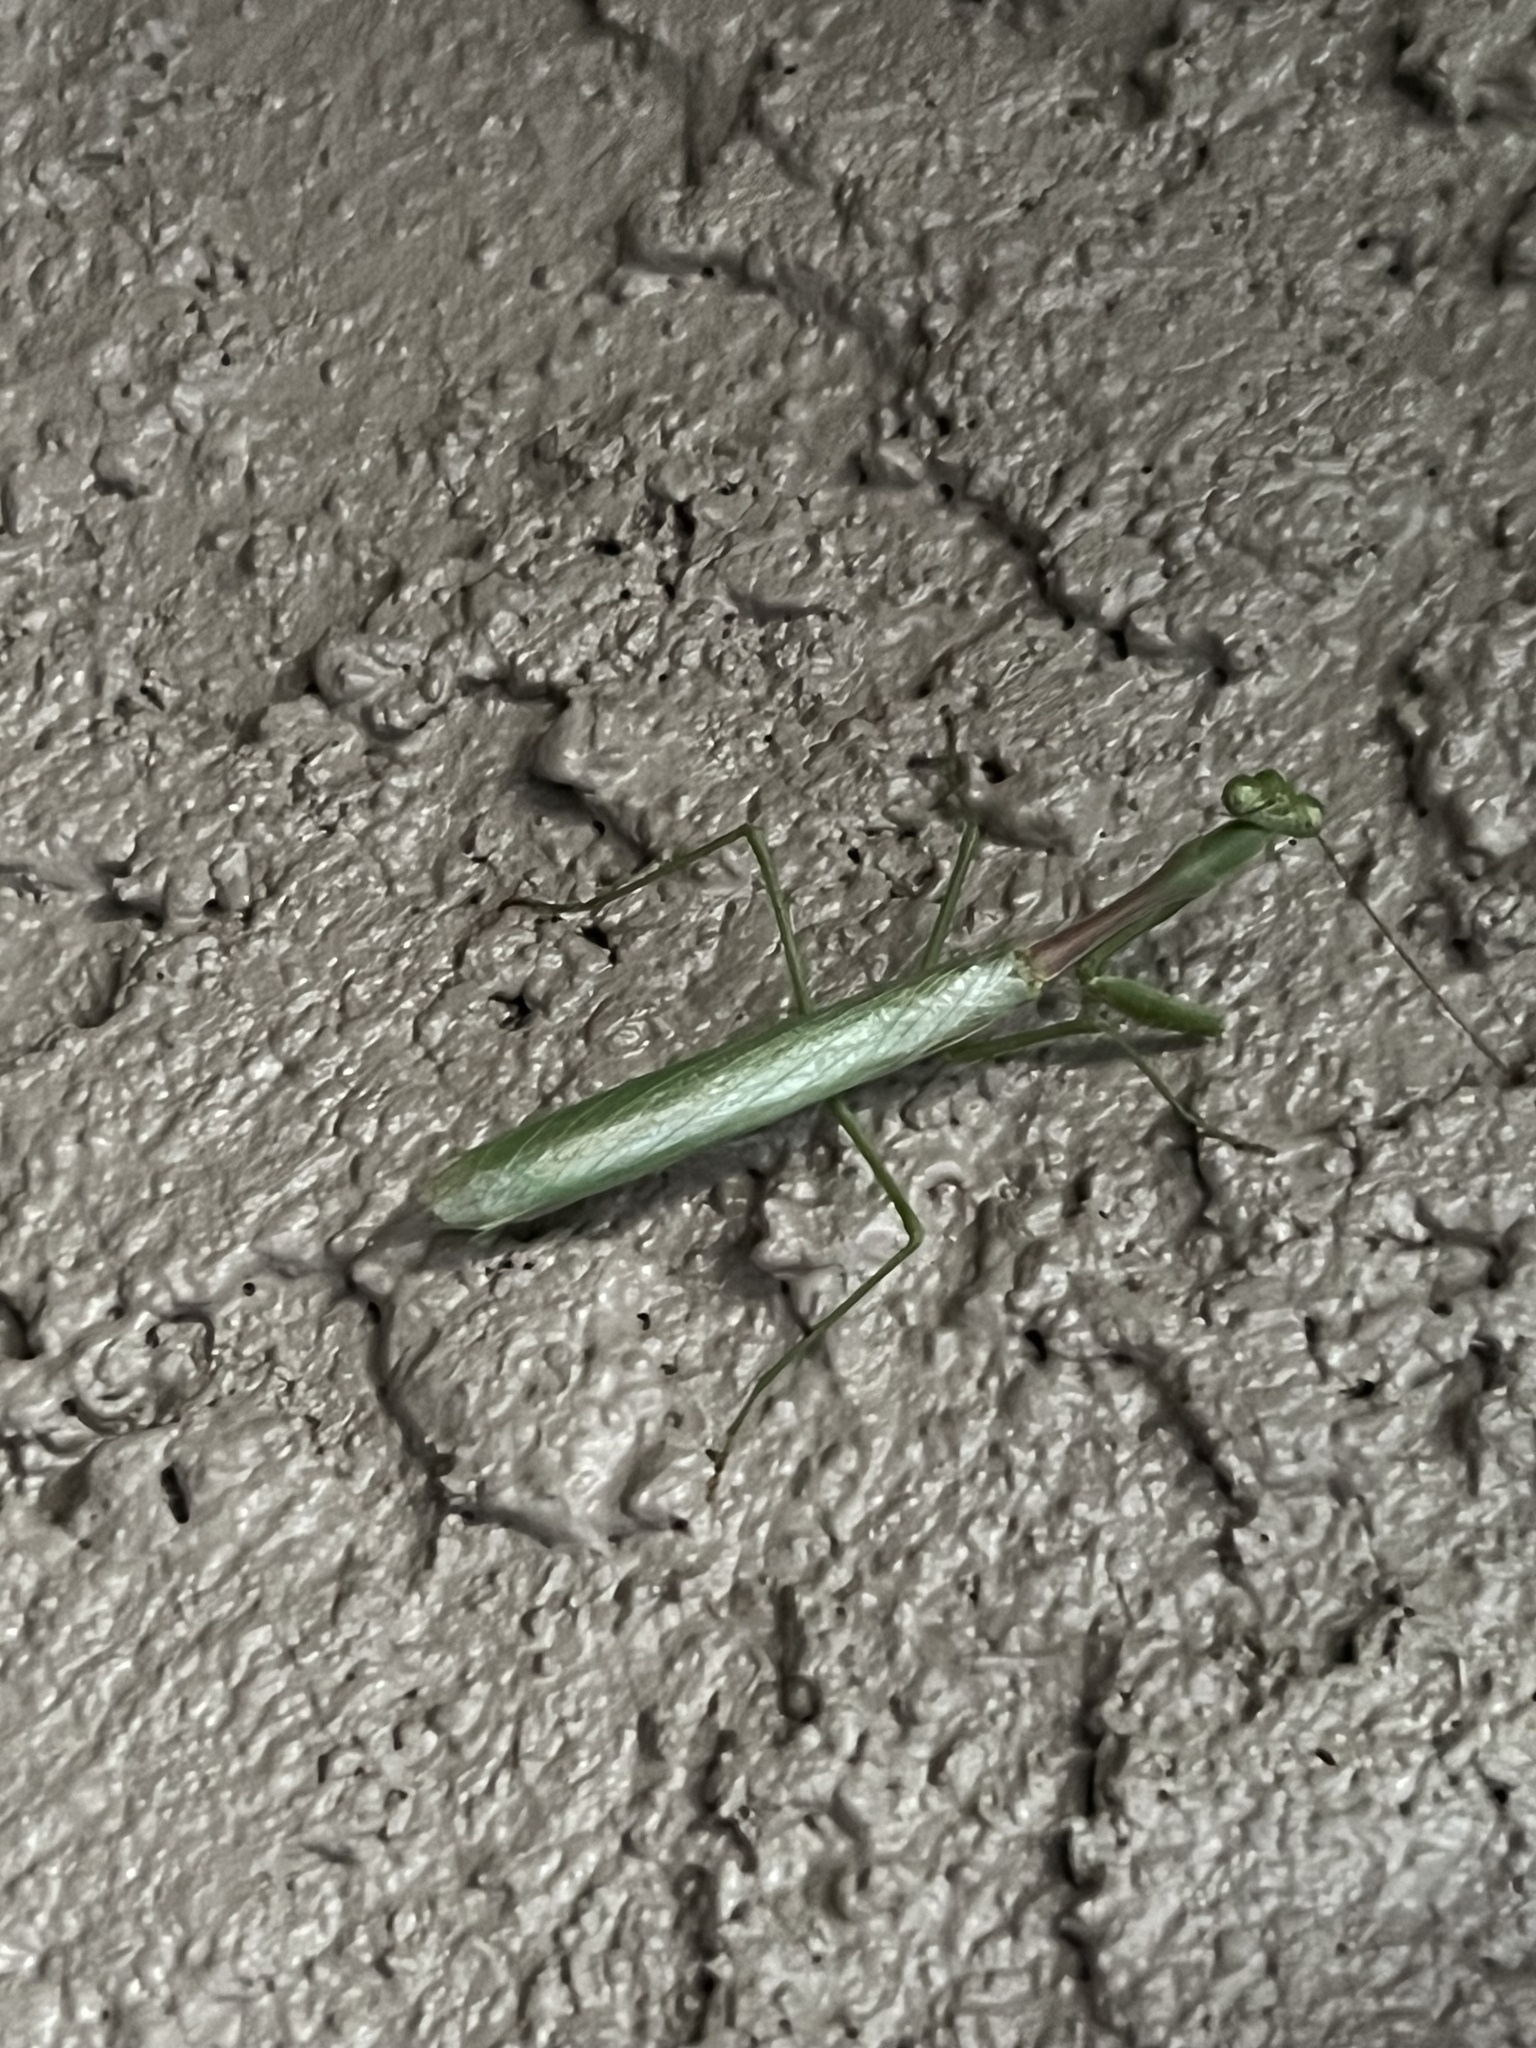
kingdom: Animalia
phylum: Arthropoda
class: Insecta
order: Mantodea
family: Mantidae
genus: Stagmomantis
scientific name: Stagmomantis limbata
